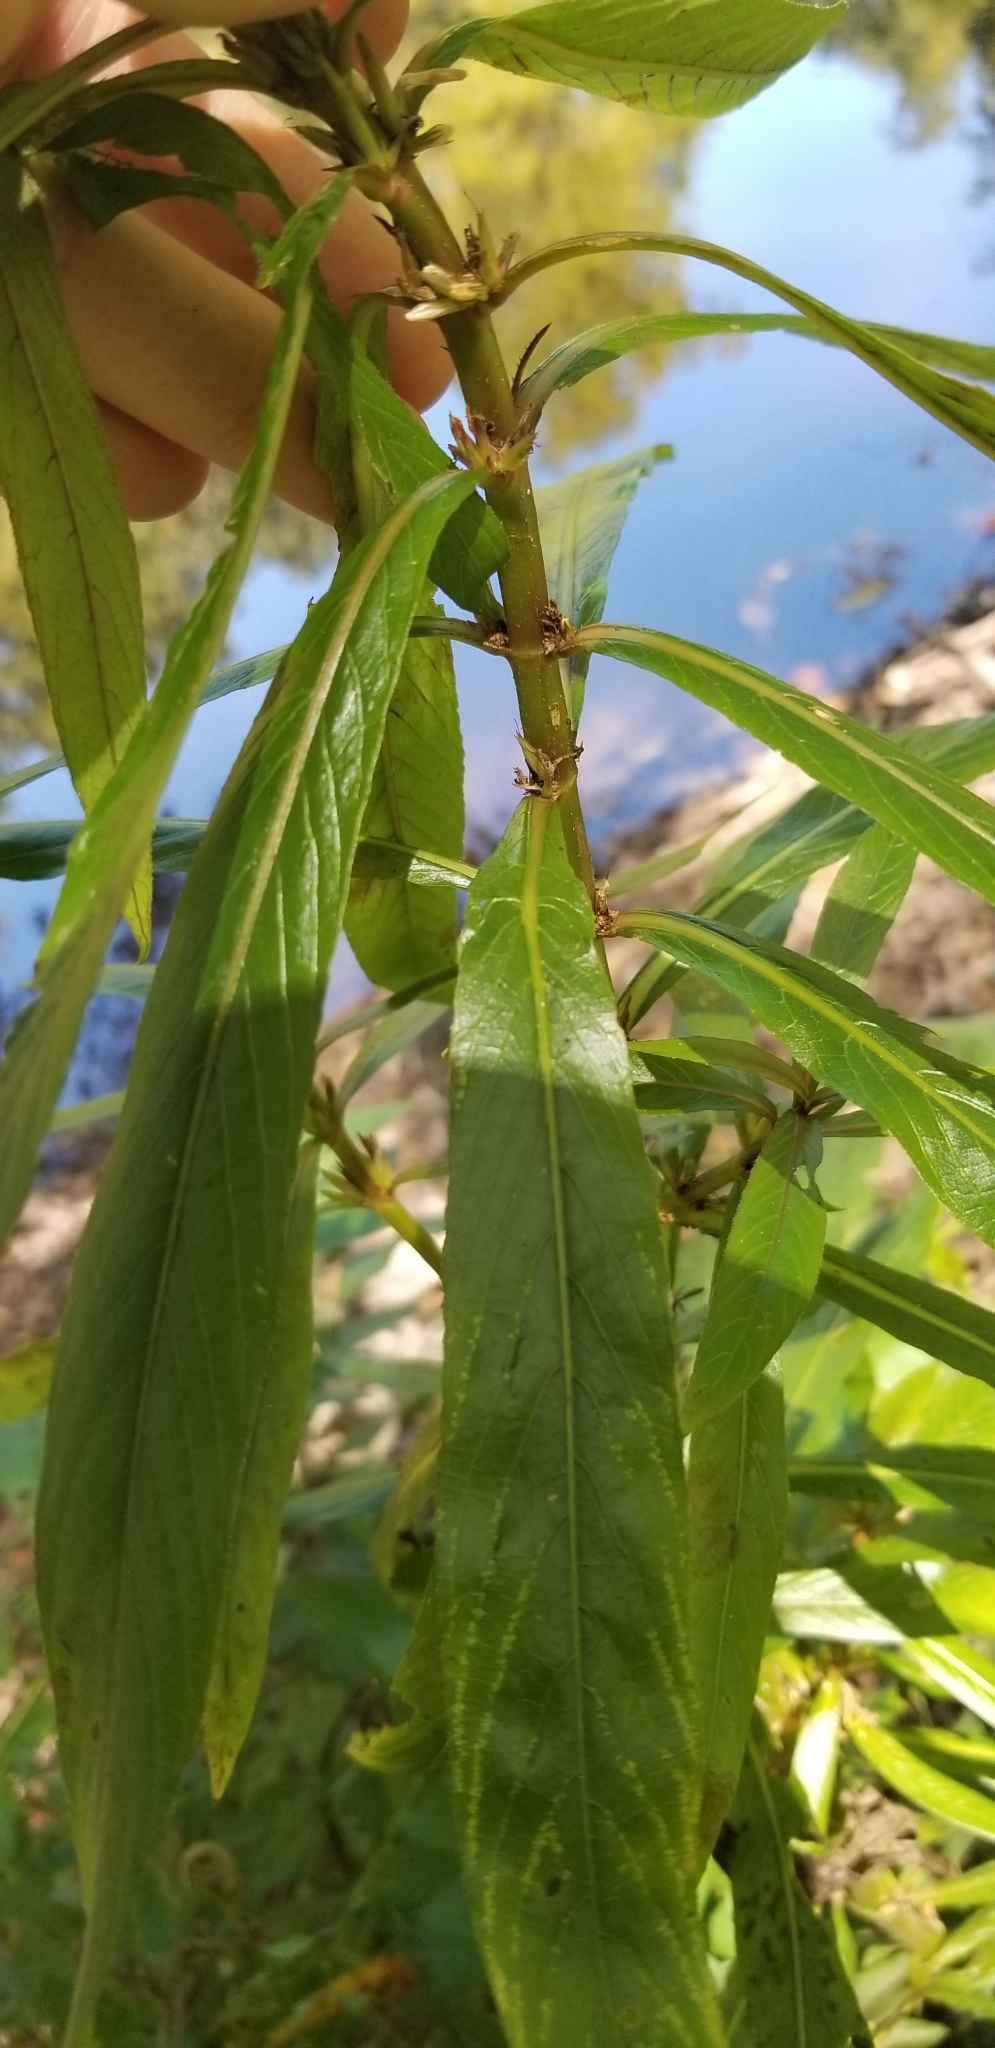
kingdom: Plantae
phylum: Tracheophyta
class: Magnoliopsida
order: Lamiales
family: Acanthaceae
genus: Hygrophila
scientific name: Hygrophila costata
